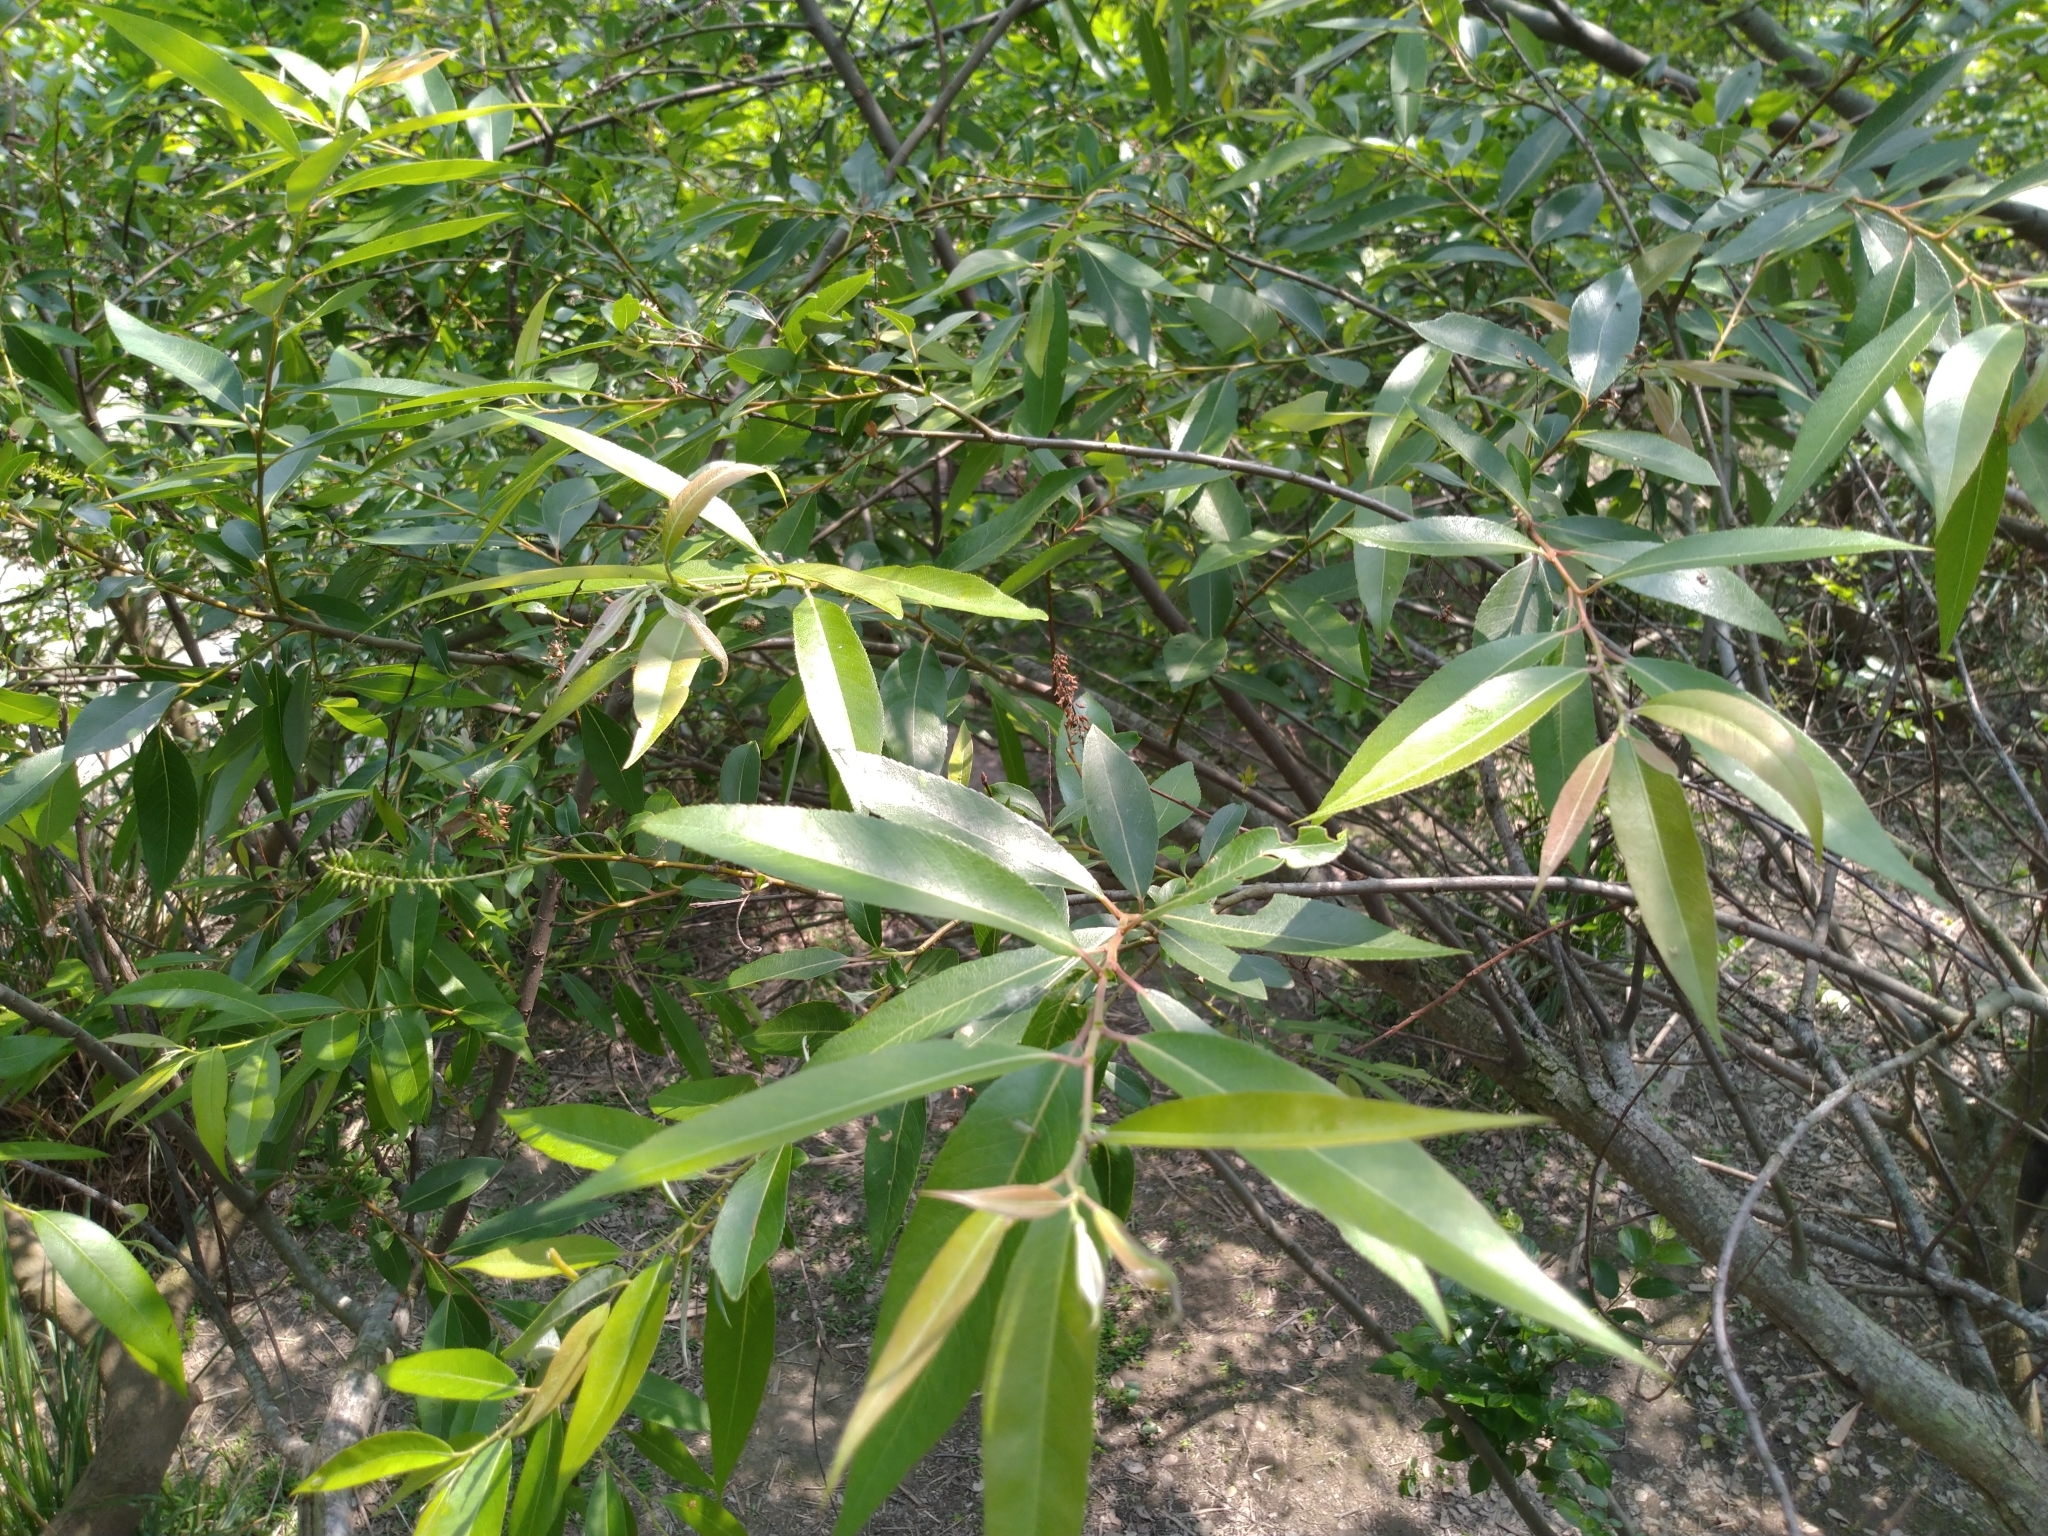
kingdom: Plantae
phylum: Tracheophyta
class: Magnoliopsida
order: Malpighiales
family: Salicaceae
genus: Salix
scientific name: Salix mesnyi
